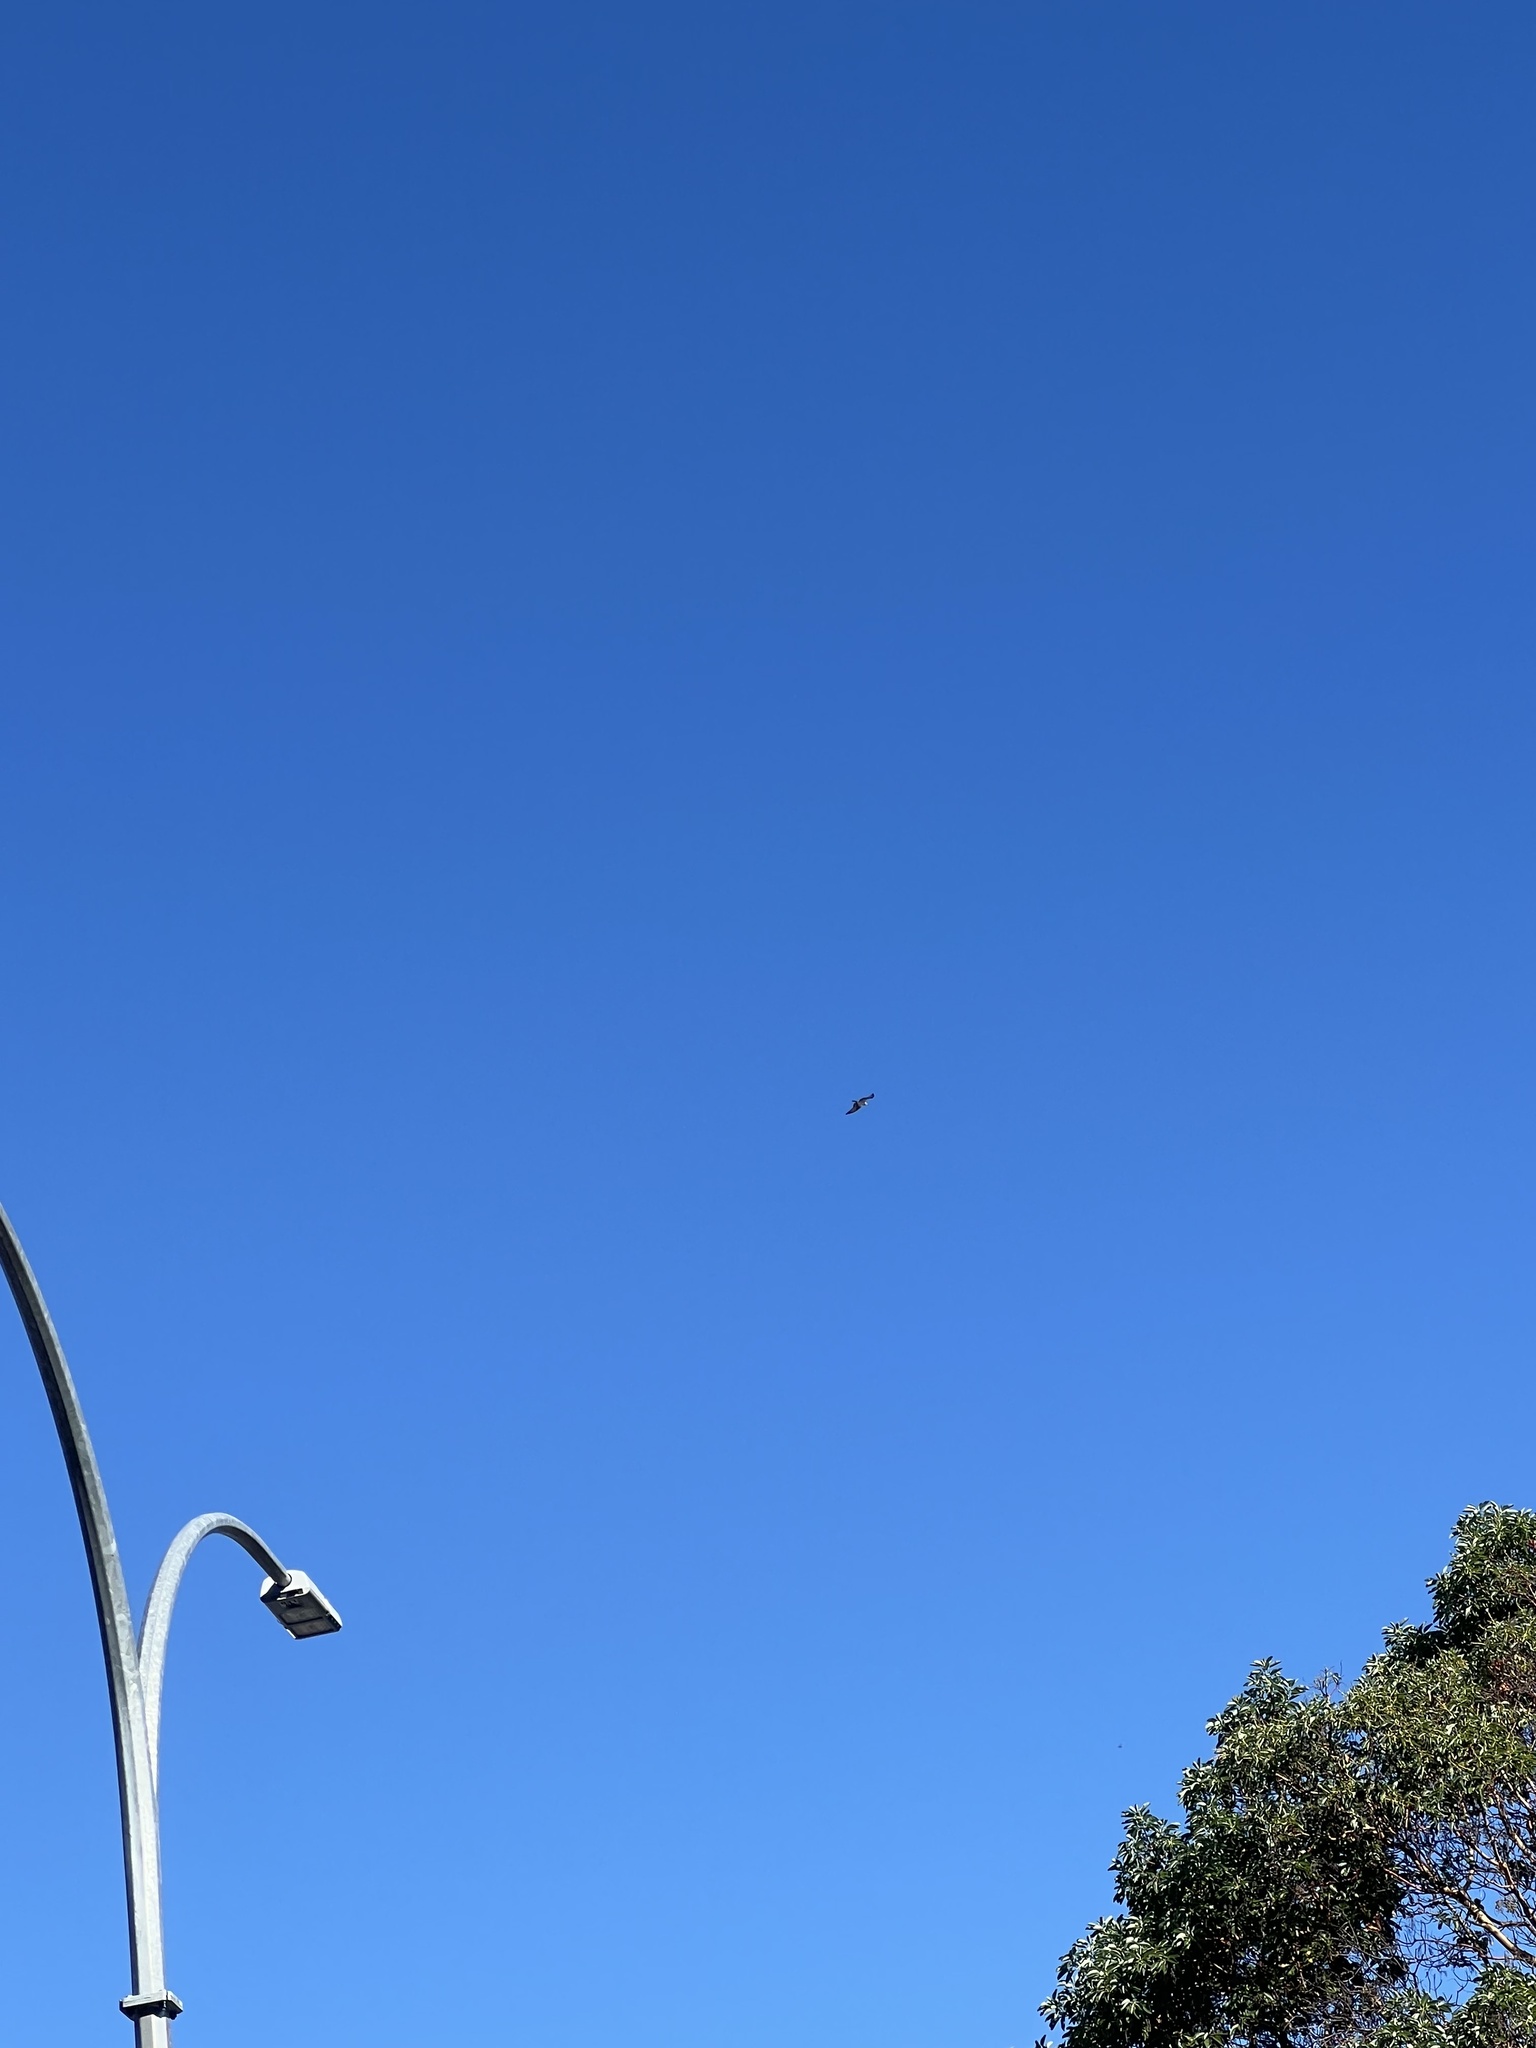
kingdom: Animalia
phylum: Chordata
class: Aves
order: Accipitriformes
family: Pandionidae
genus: Pandion
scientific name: Pandion haliaetus
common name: Osprey
